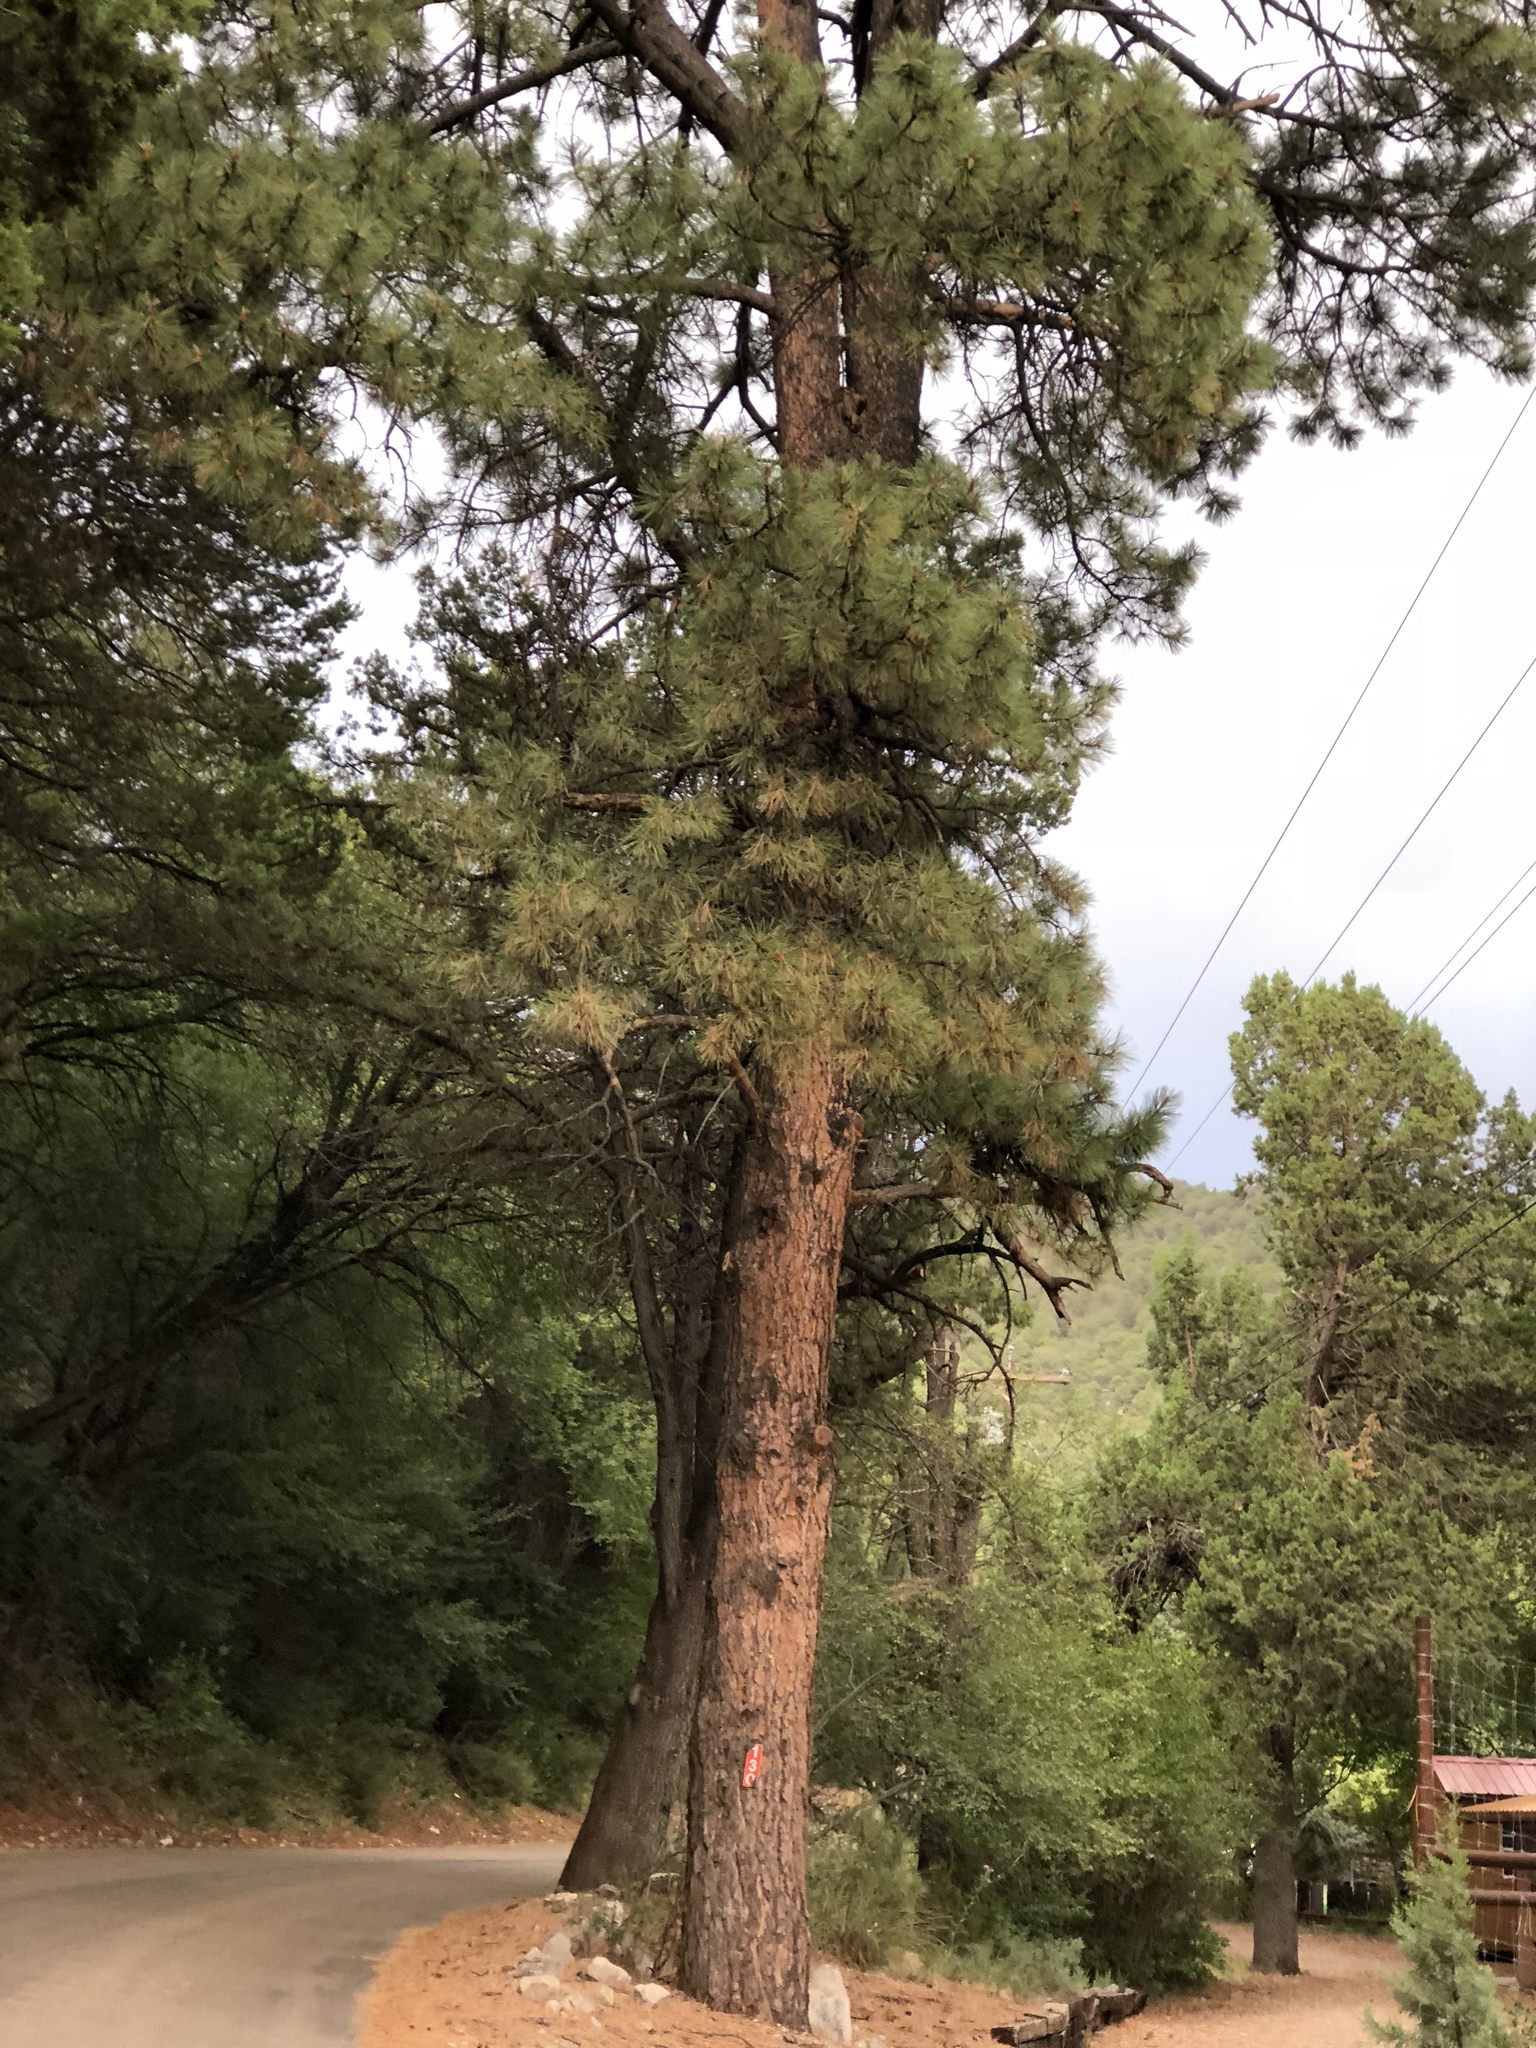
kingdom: Plantae
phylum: Tracheophyta
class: Pinopsida
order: Pinales
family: Pinaceae
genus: Pinus
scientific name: Pinus ponderosa
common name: Western yellow-pine
